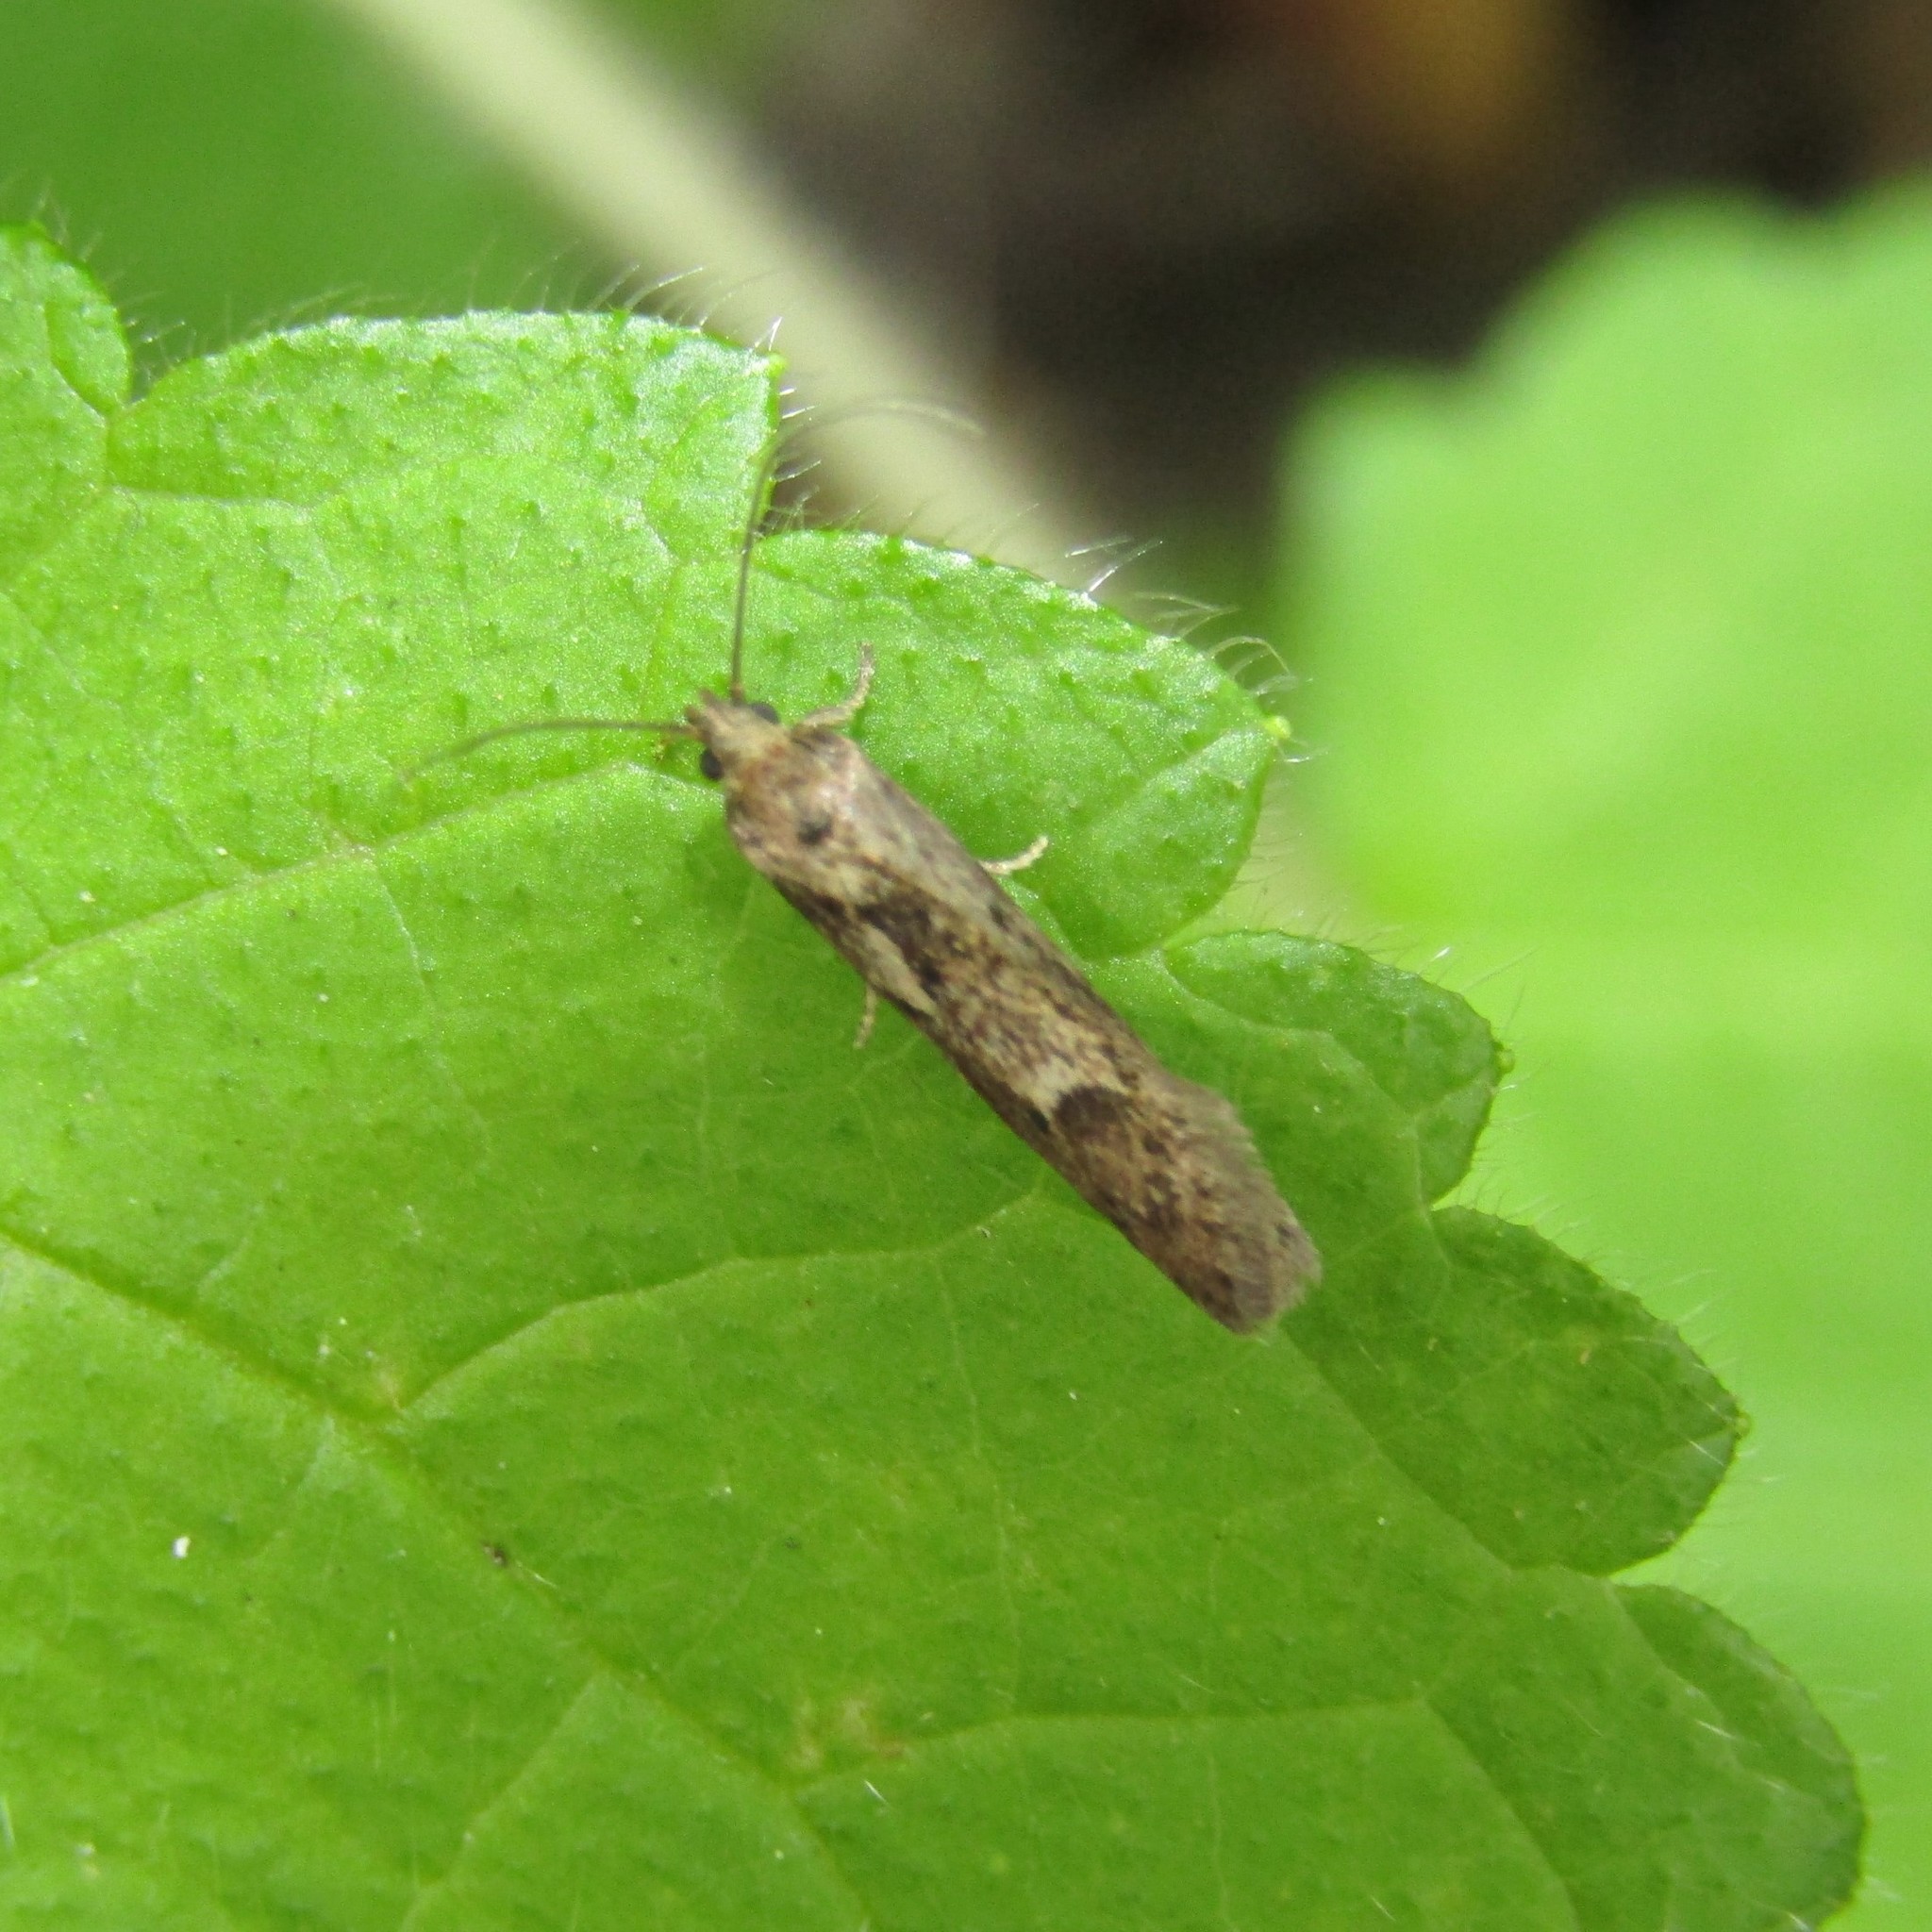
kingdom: Animalia
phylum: Arthropoda
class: Insecta
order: Lepidoptera
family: Oecophoridae
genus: Chersadaula
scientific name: Chersadaula ochrogastra
